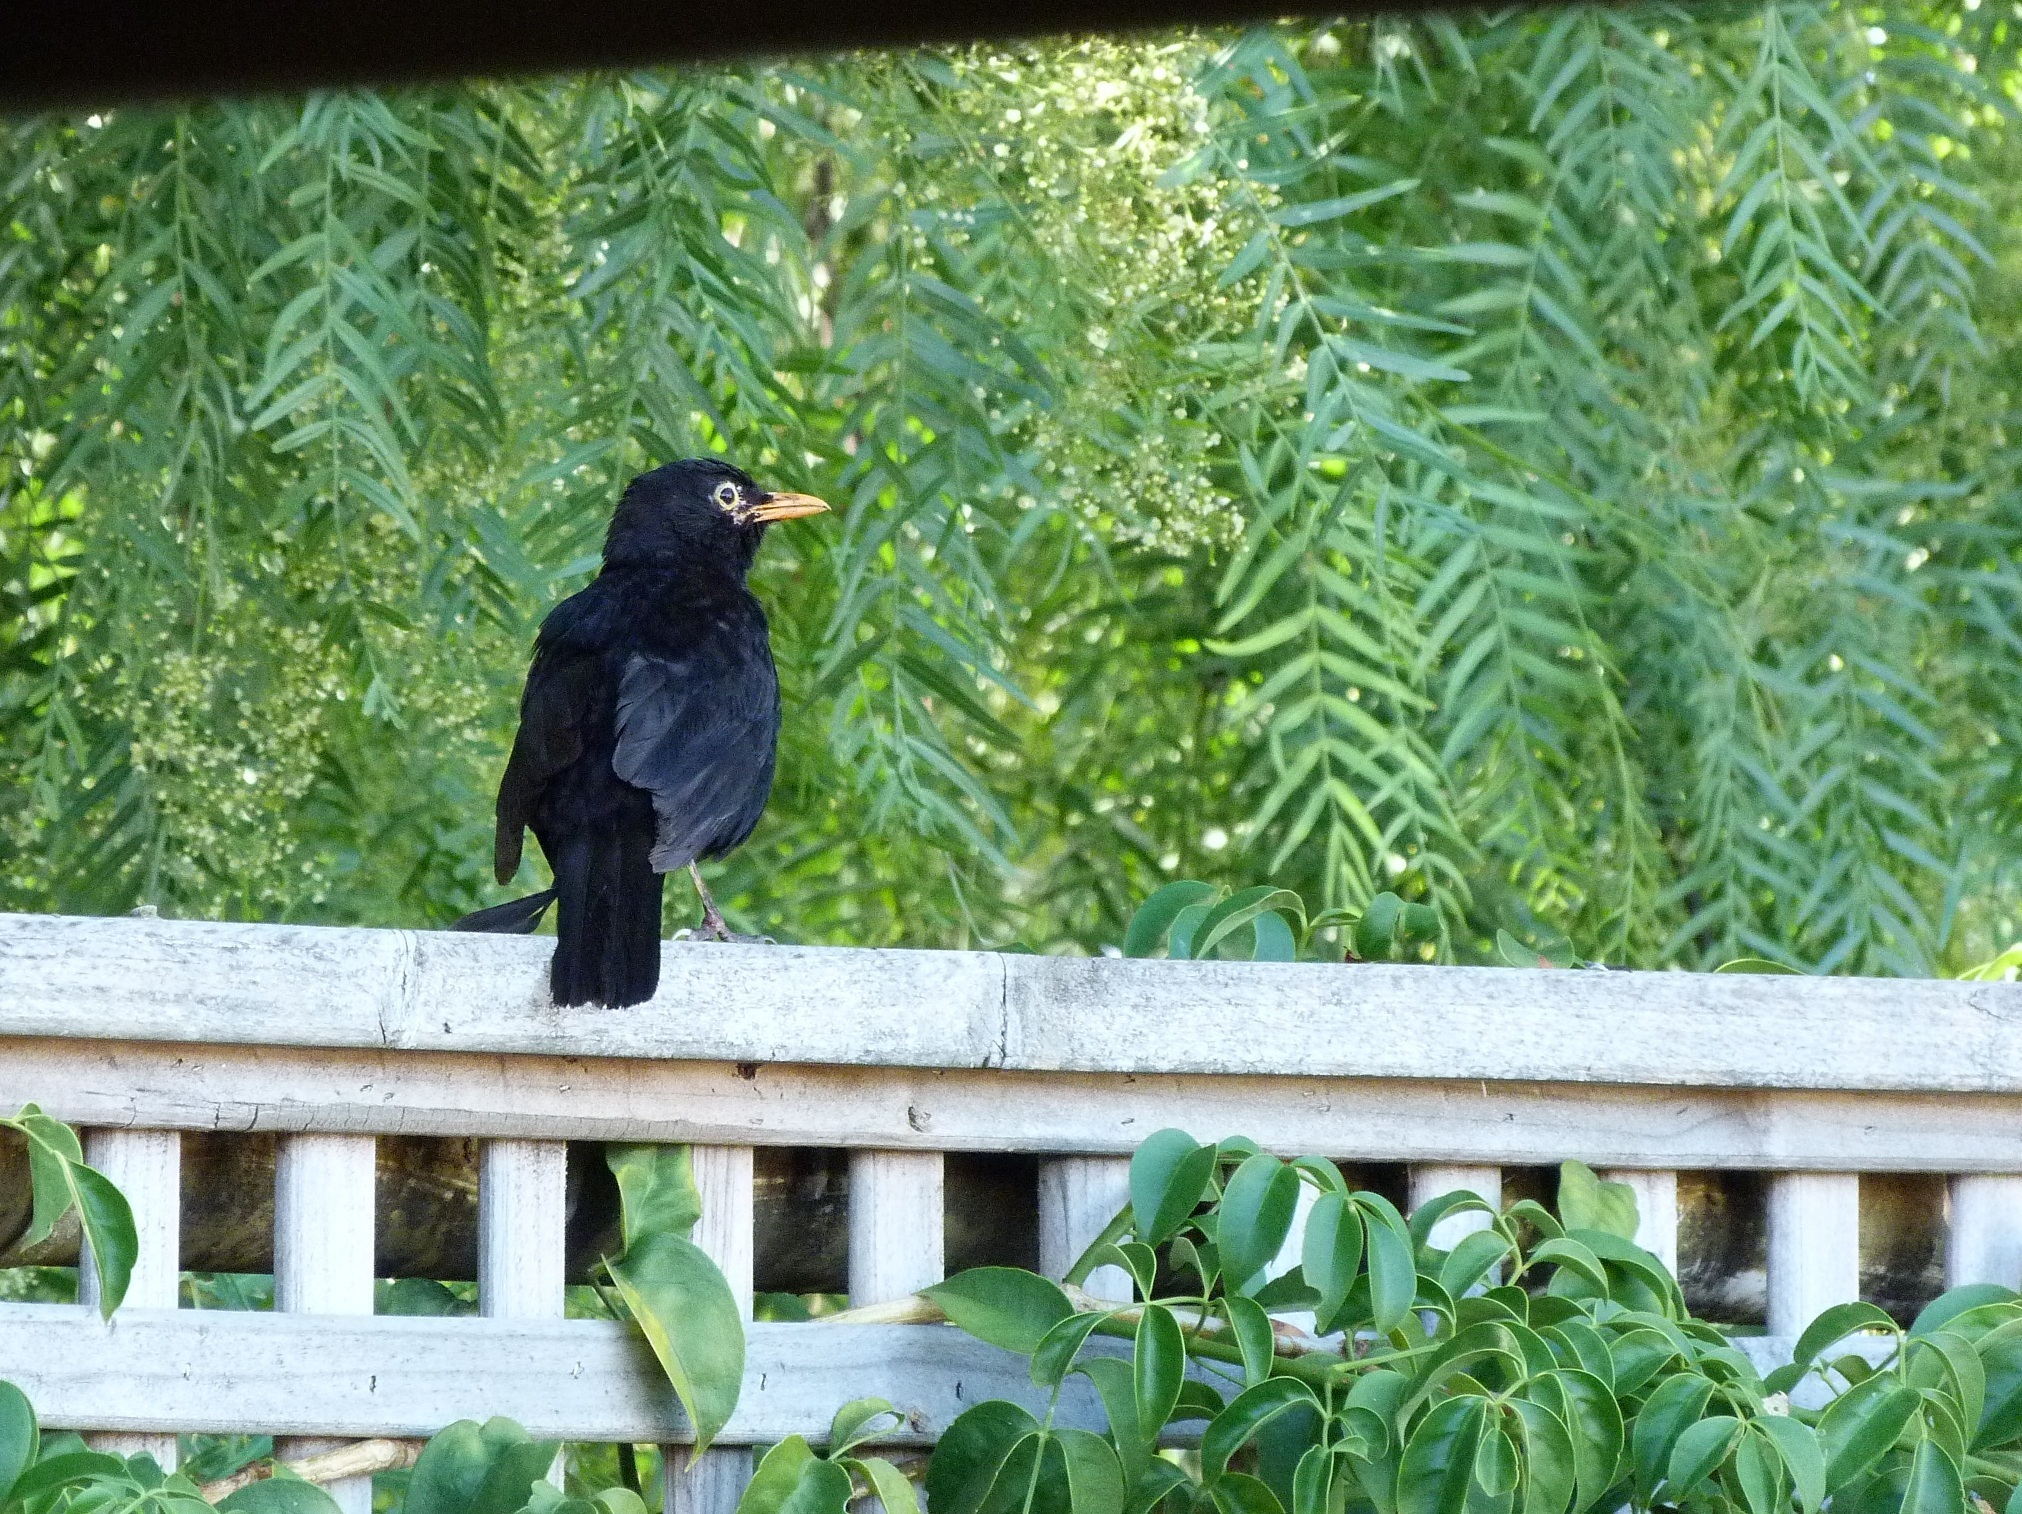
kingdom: Animalia
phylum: Chordata
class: Aves
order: Passeriformes
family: Turdidae
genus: Turdus
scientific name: Turdus merula
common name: Common blackbird
